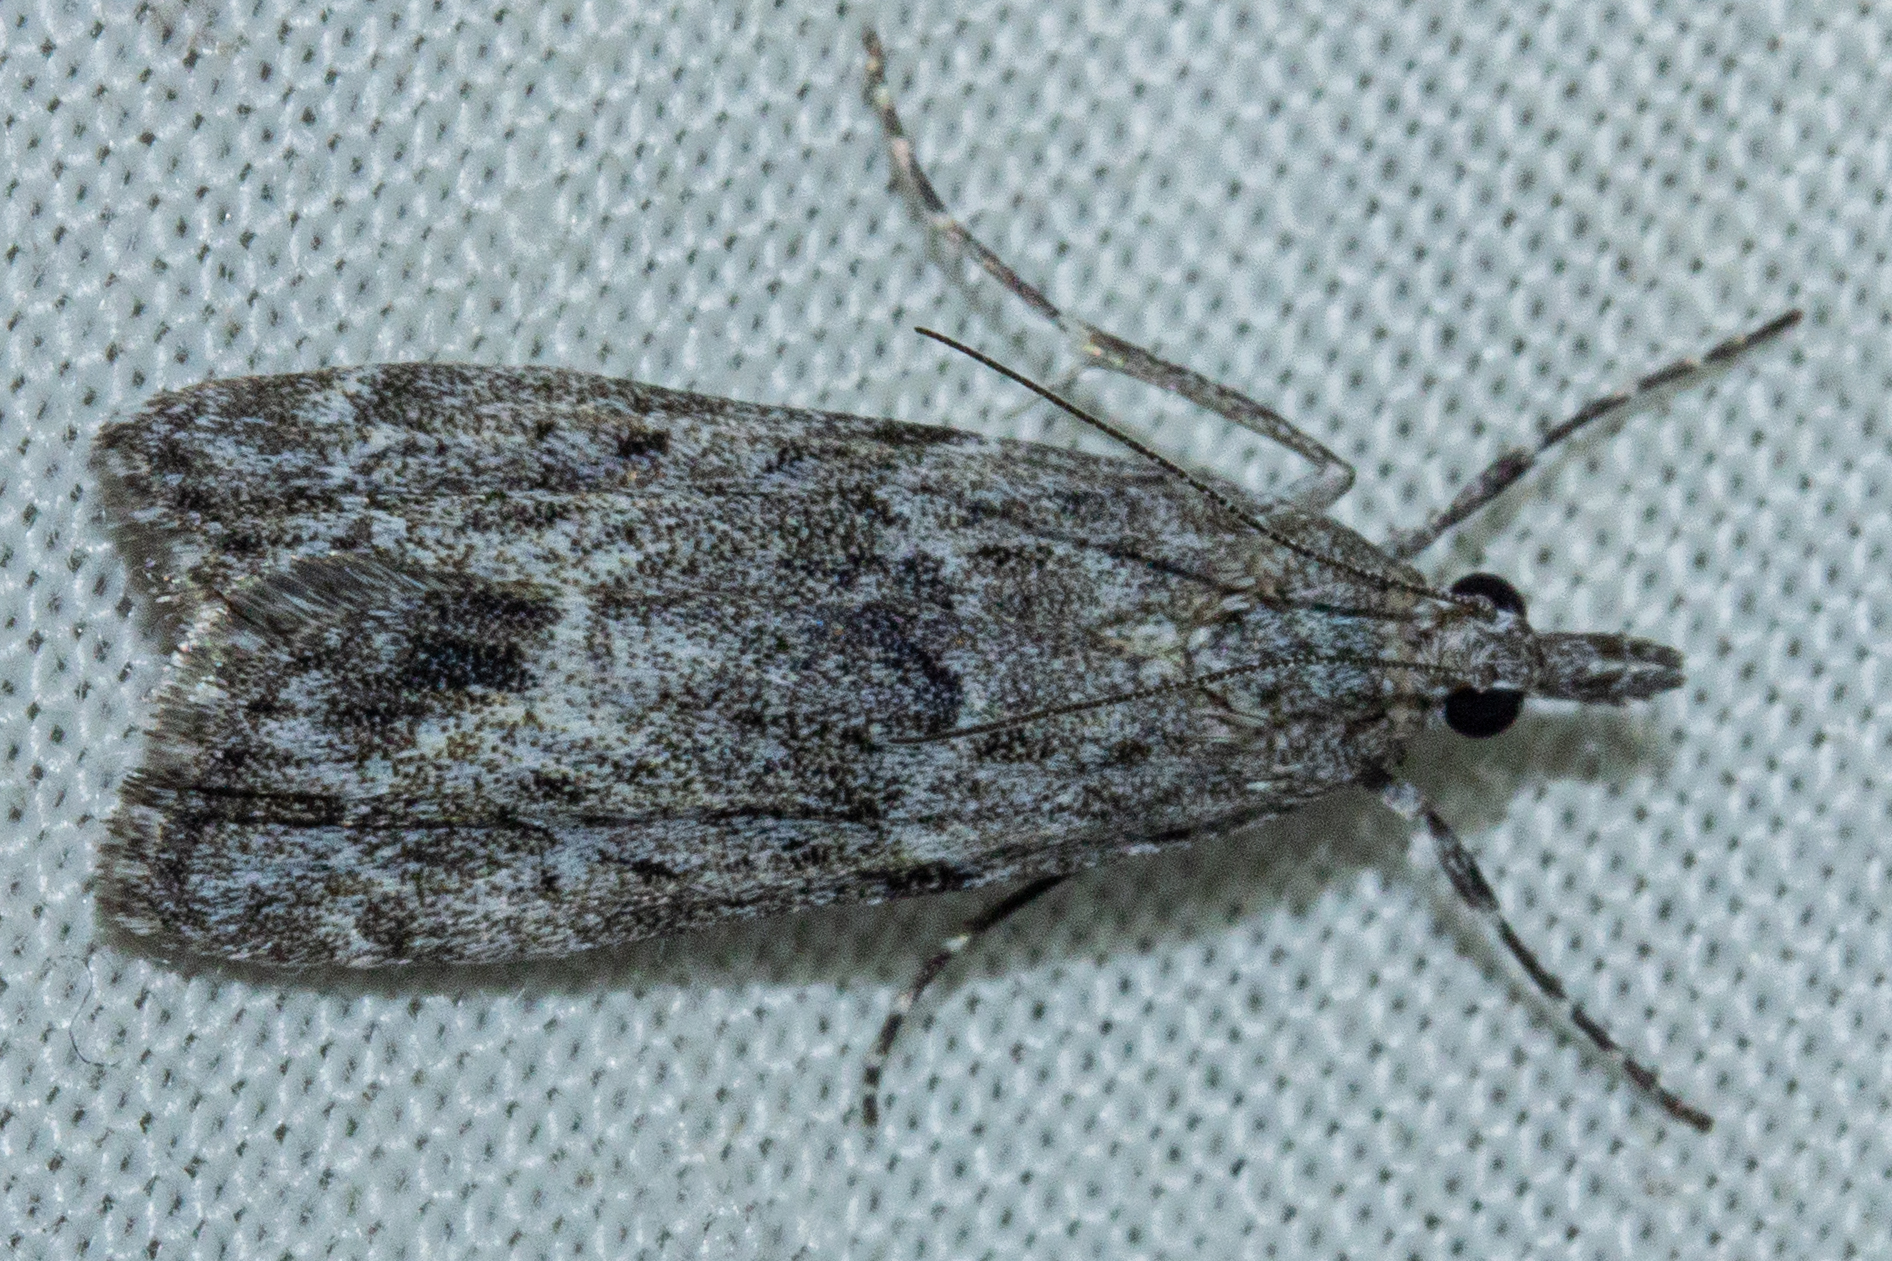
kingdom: Animalia
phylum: Arthropoda
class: Insecta
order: Lepidoptera
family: Crambidae
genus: Eudonia
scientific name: Eudonia rakaiensis
